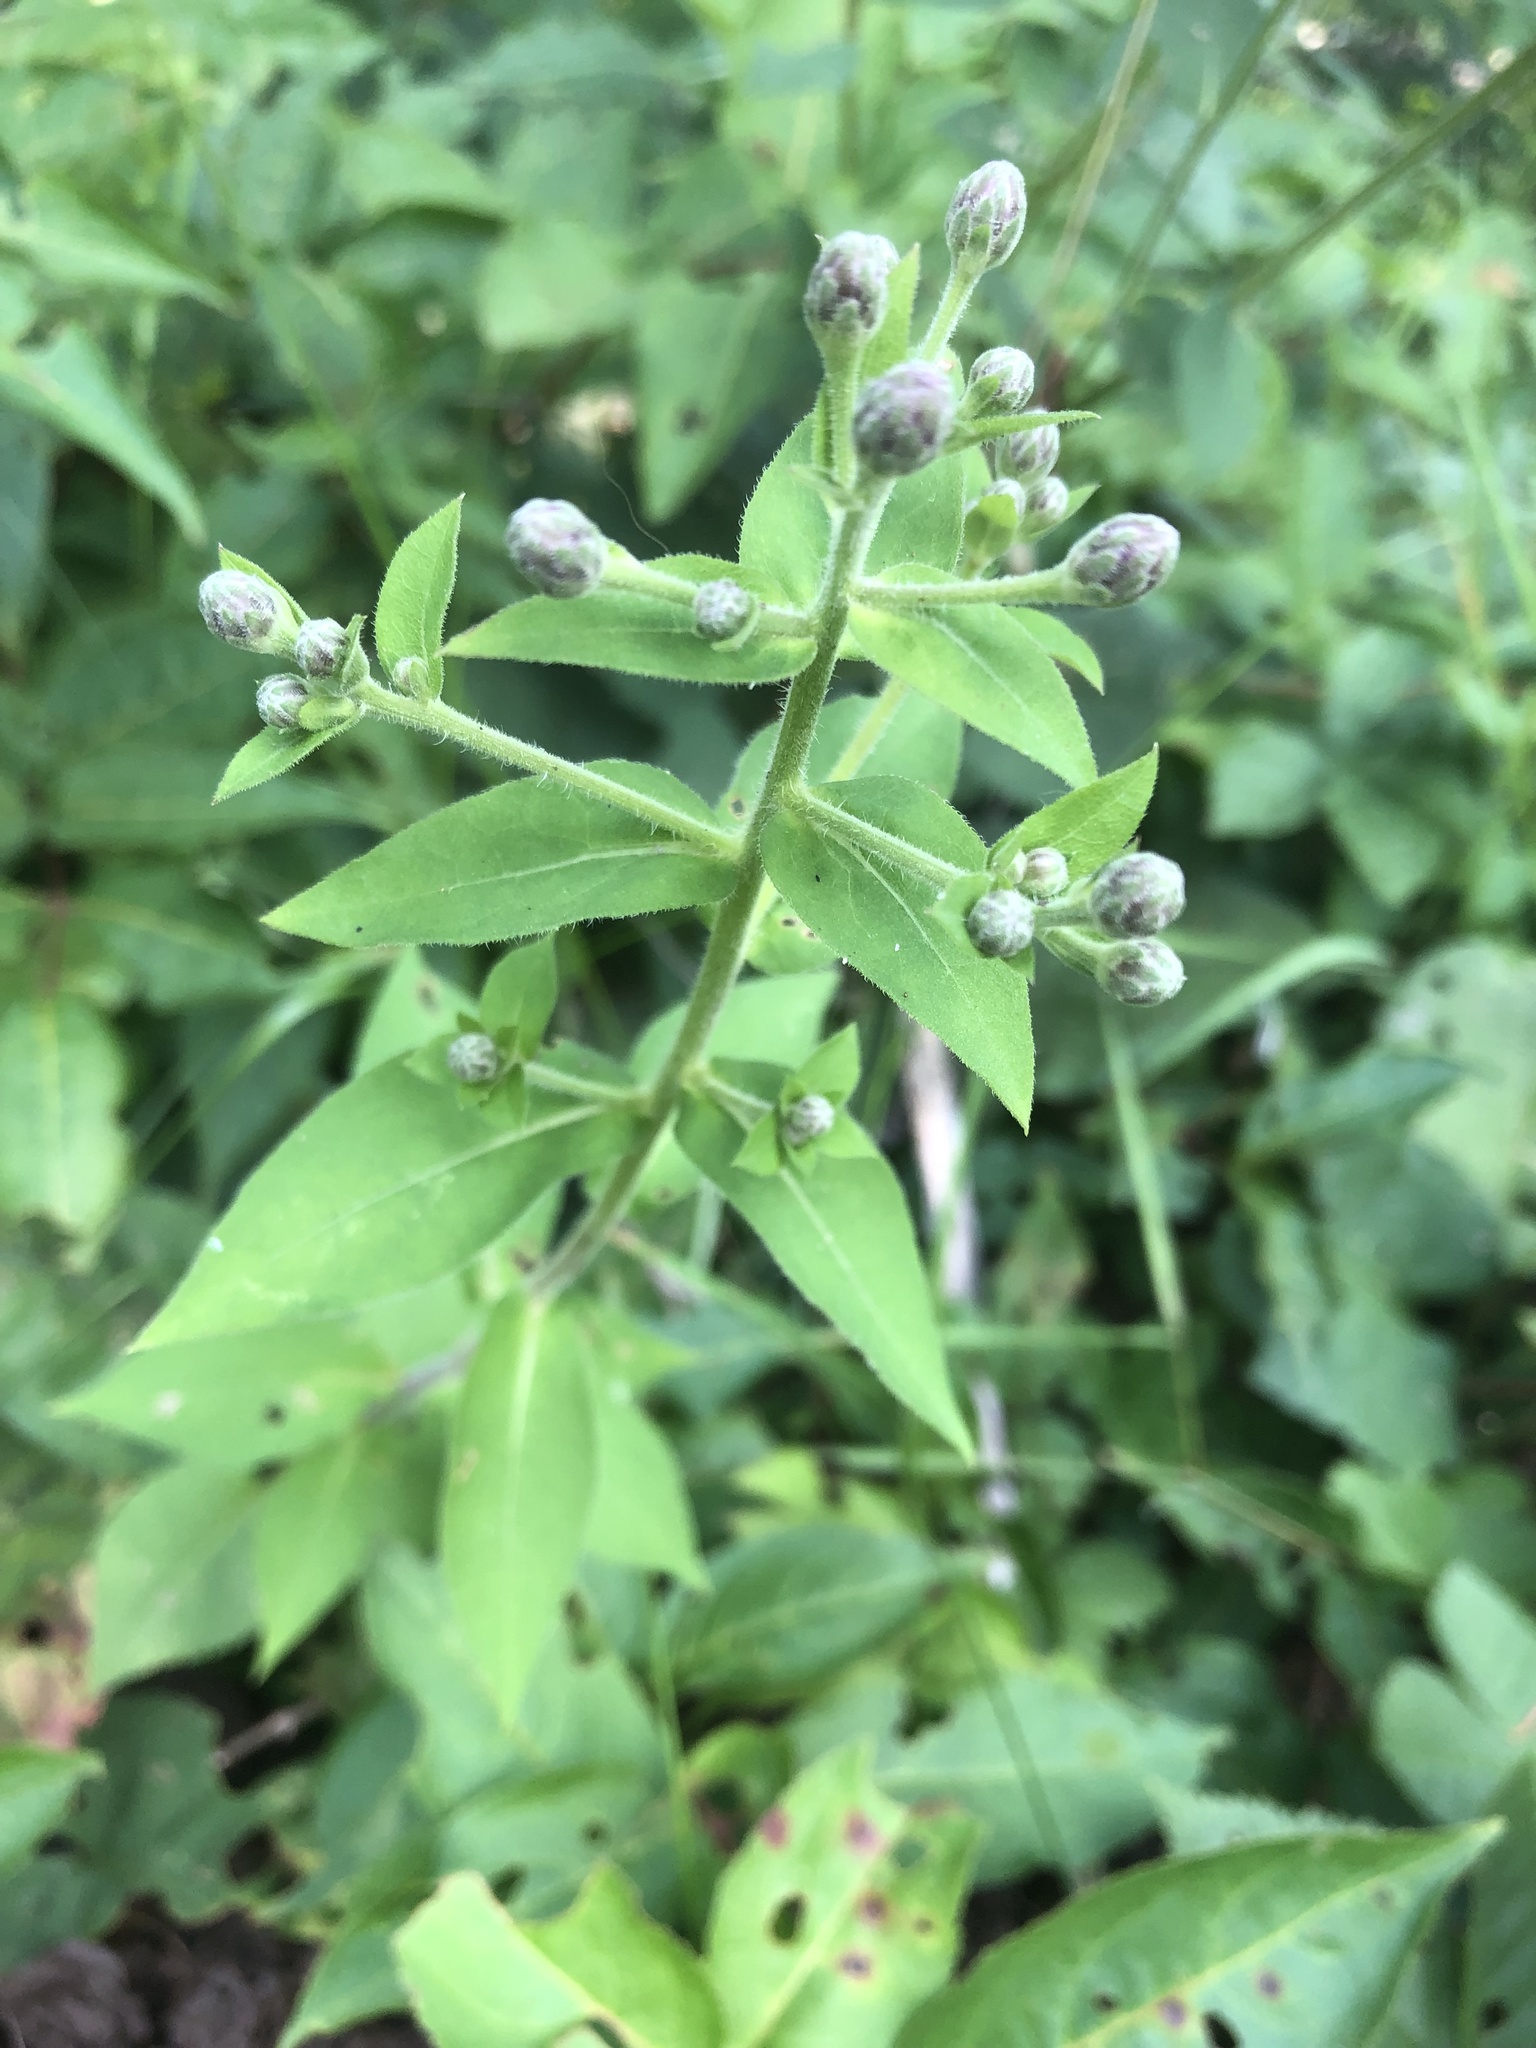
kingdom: Plantae
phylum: Tracheophyta
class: Magnoliopsida
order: Asterales
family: Asteraceae
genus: Eurybia
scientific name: Eurybia macrophylla
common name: Big-leaved aster
